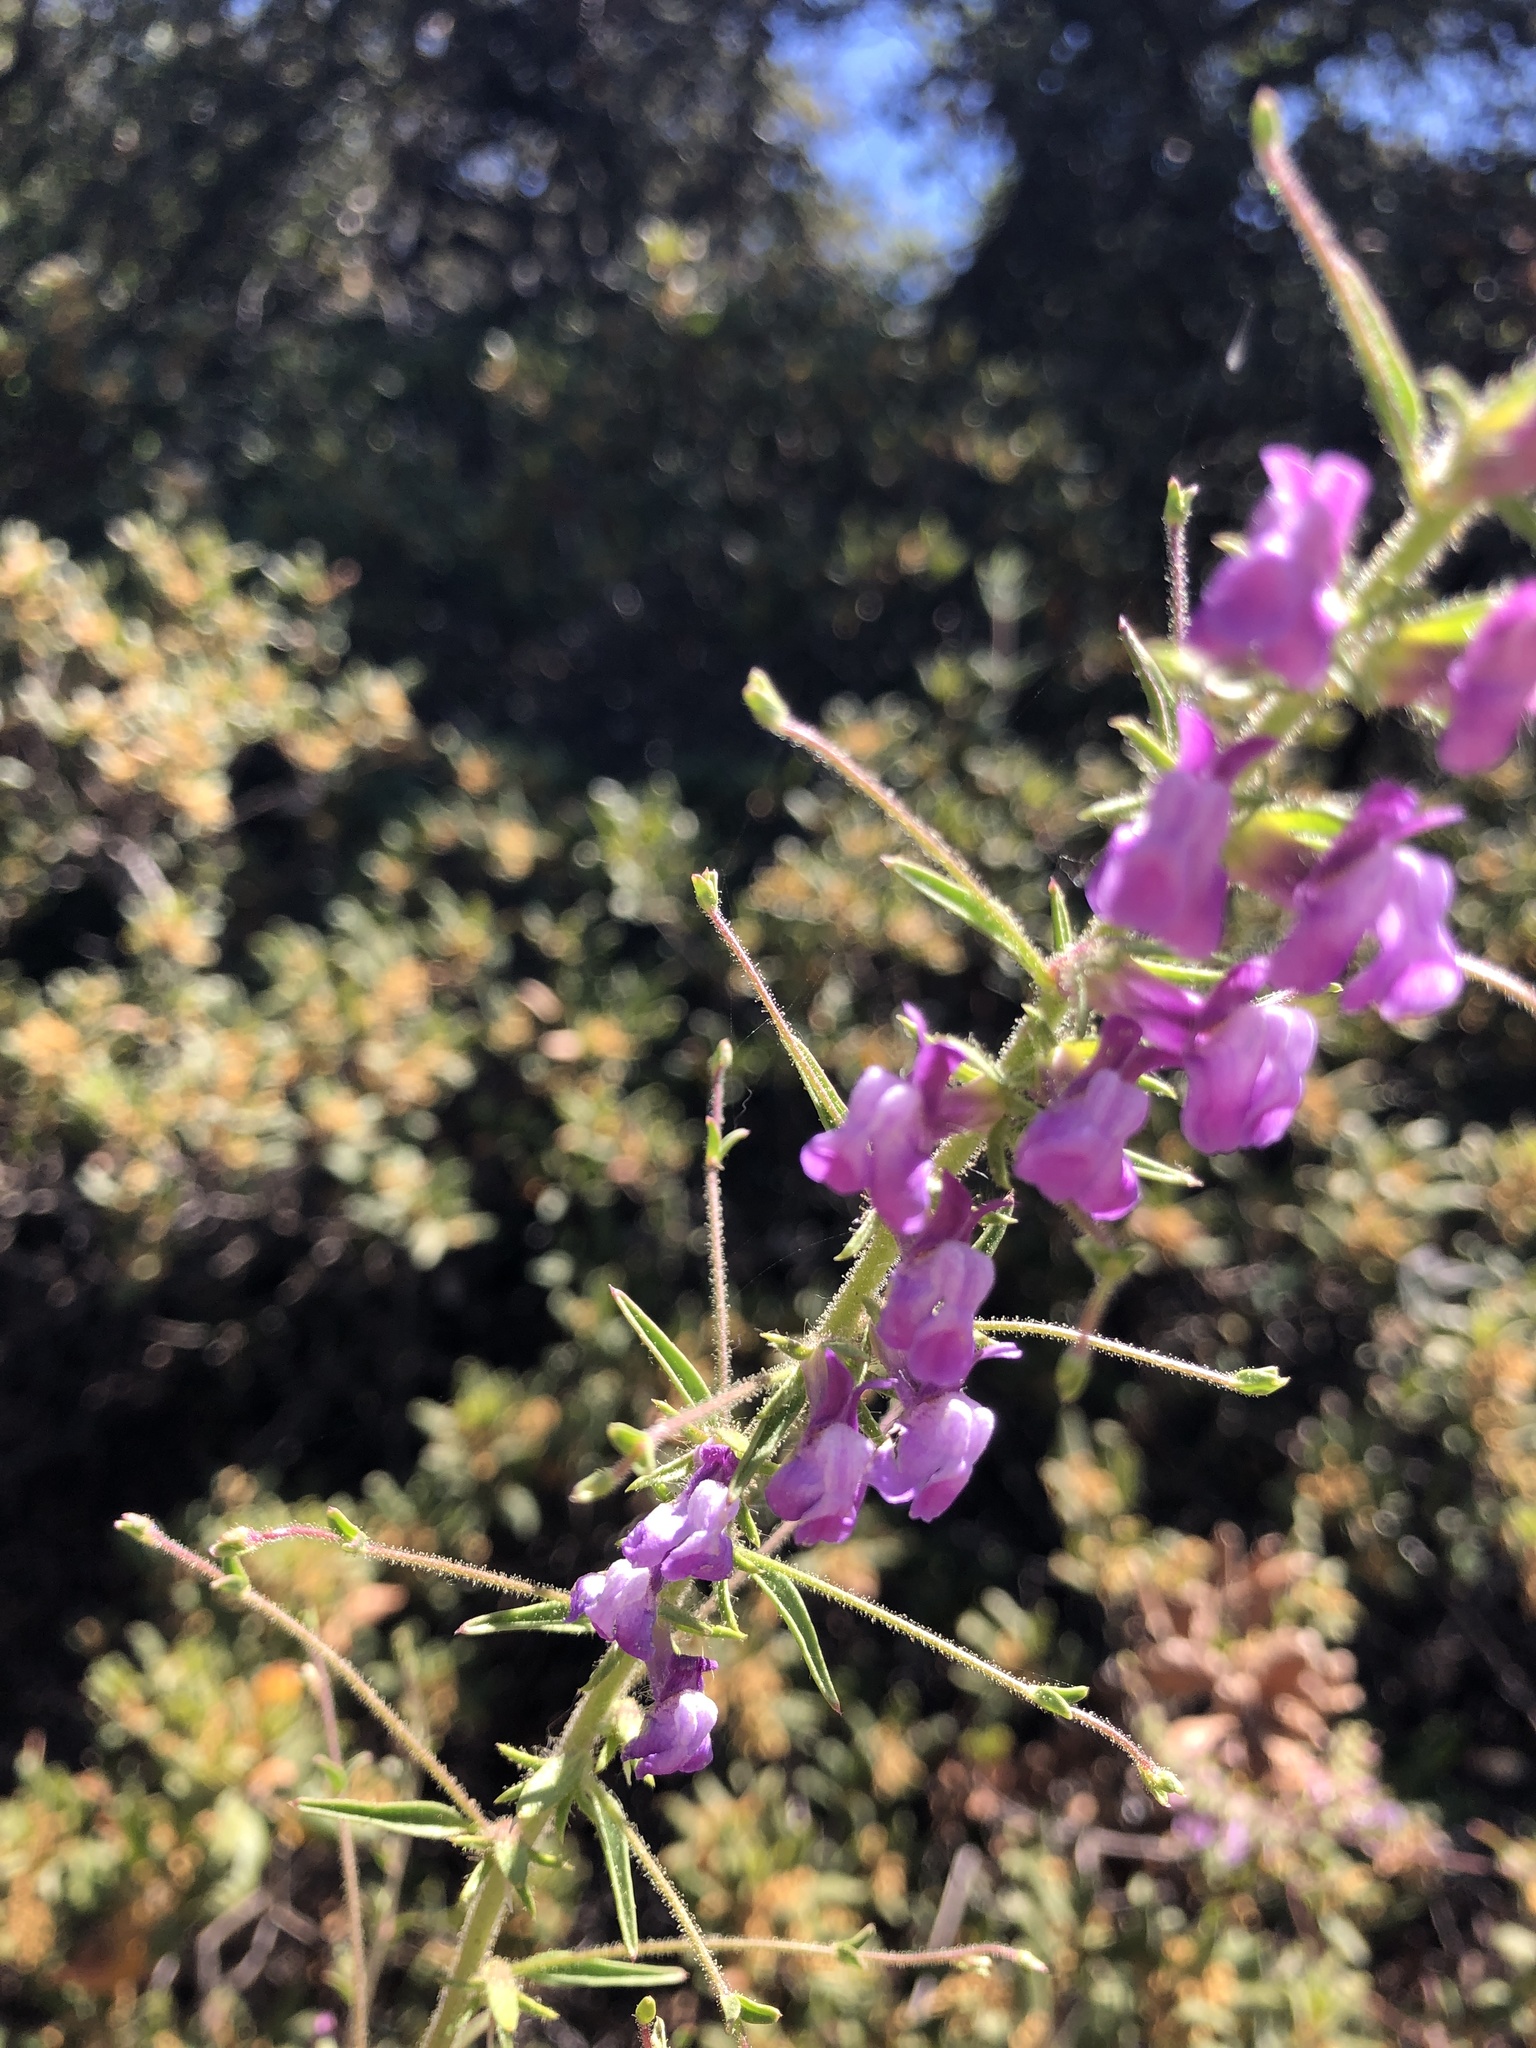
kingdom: Plantae
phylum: Tracheophyta
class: Magnoliopsida
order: Lamiales
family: Plantaginaceae
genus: Sairocarpus
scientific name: Sairocarpus vexillocalyculatus
